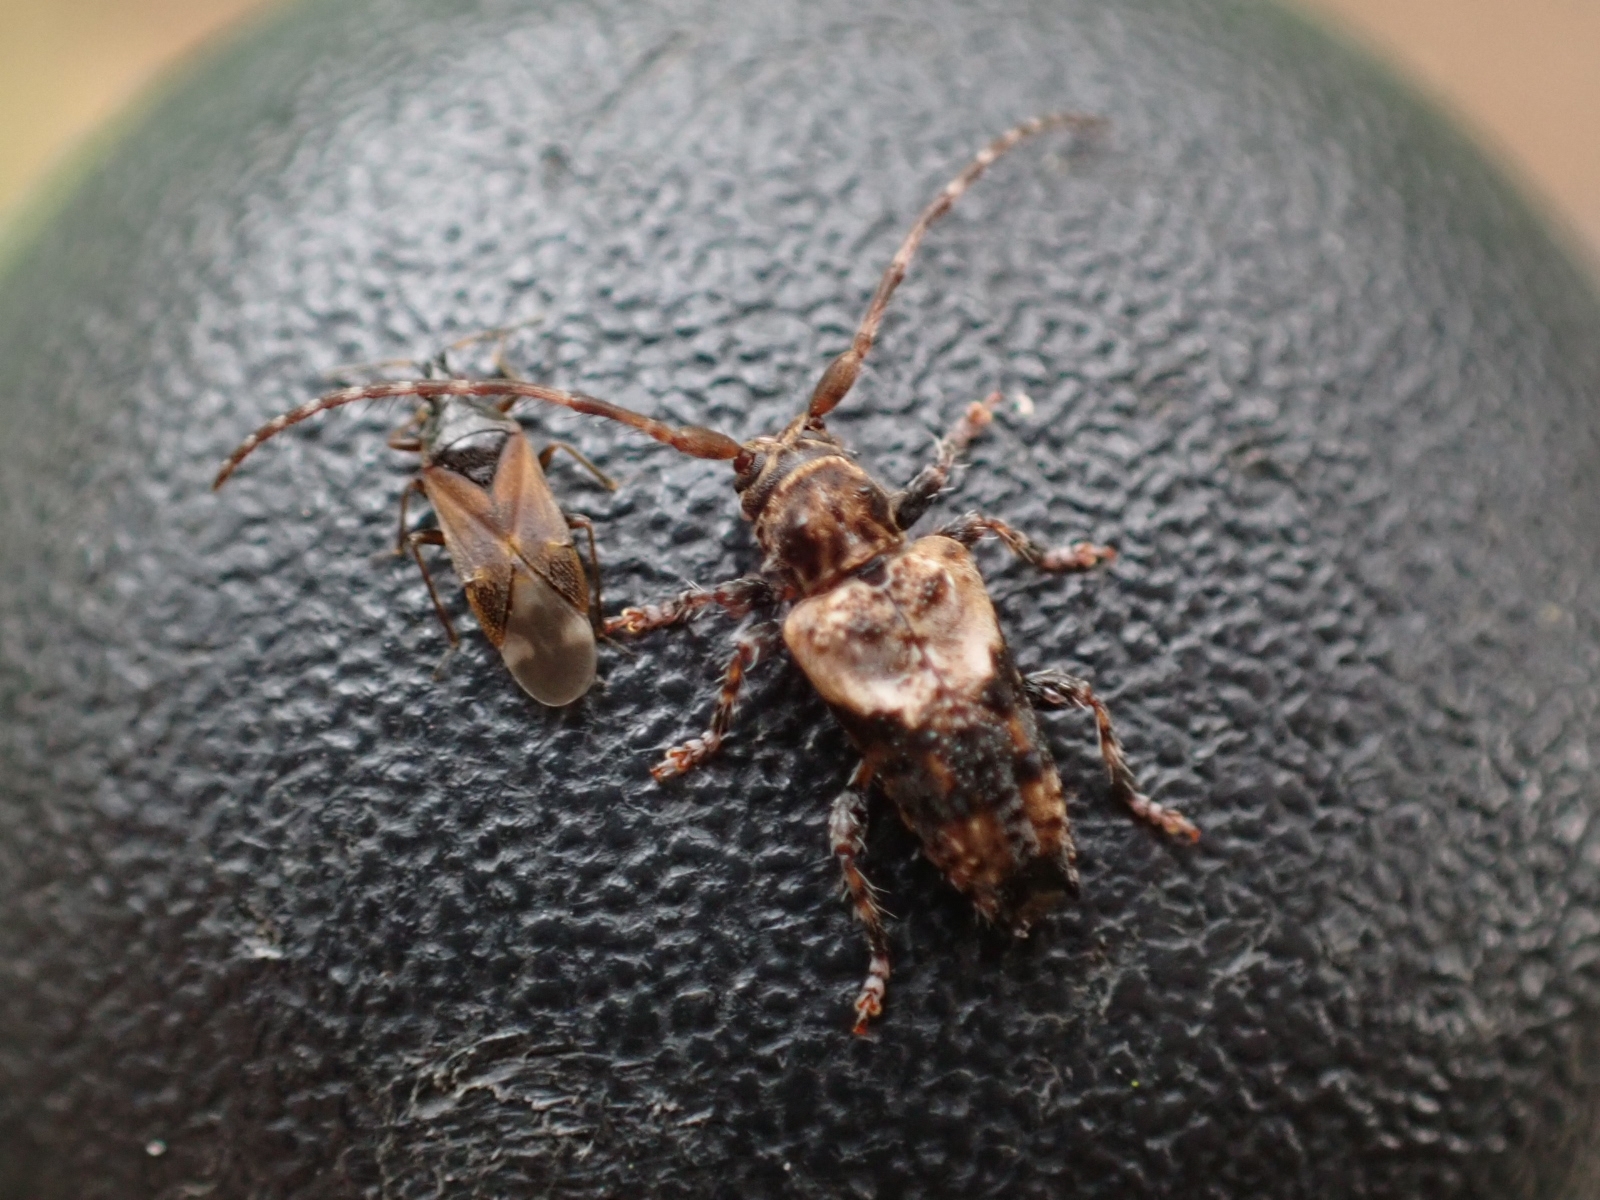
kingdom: Animalia
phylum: Arthropoda
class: Insecta
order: Coleoptera
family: Cerambycidae
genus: Pogonocherus
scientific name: Pogonocherus hispidus
